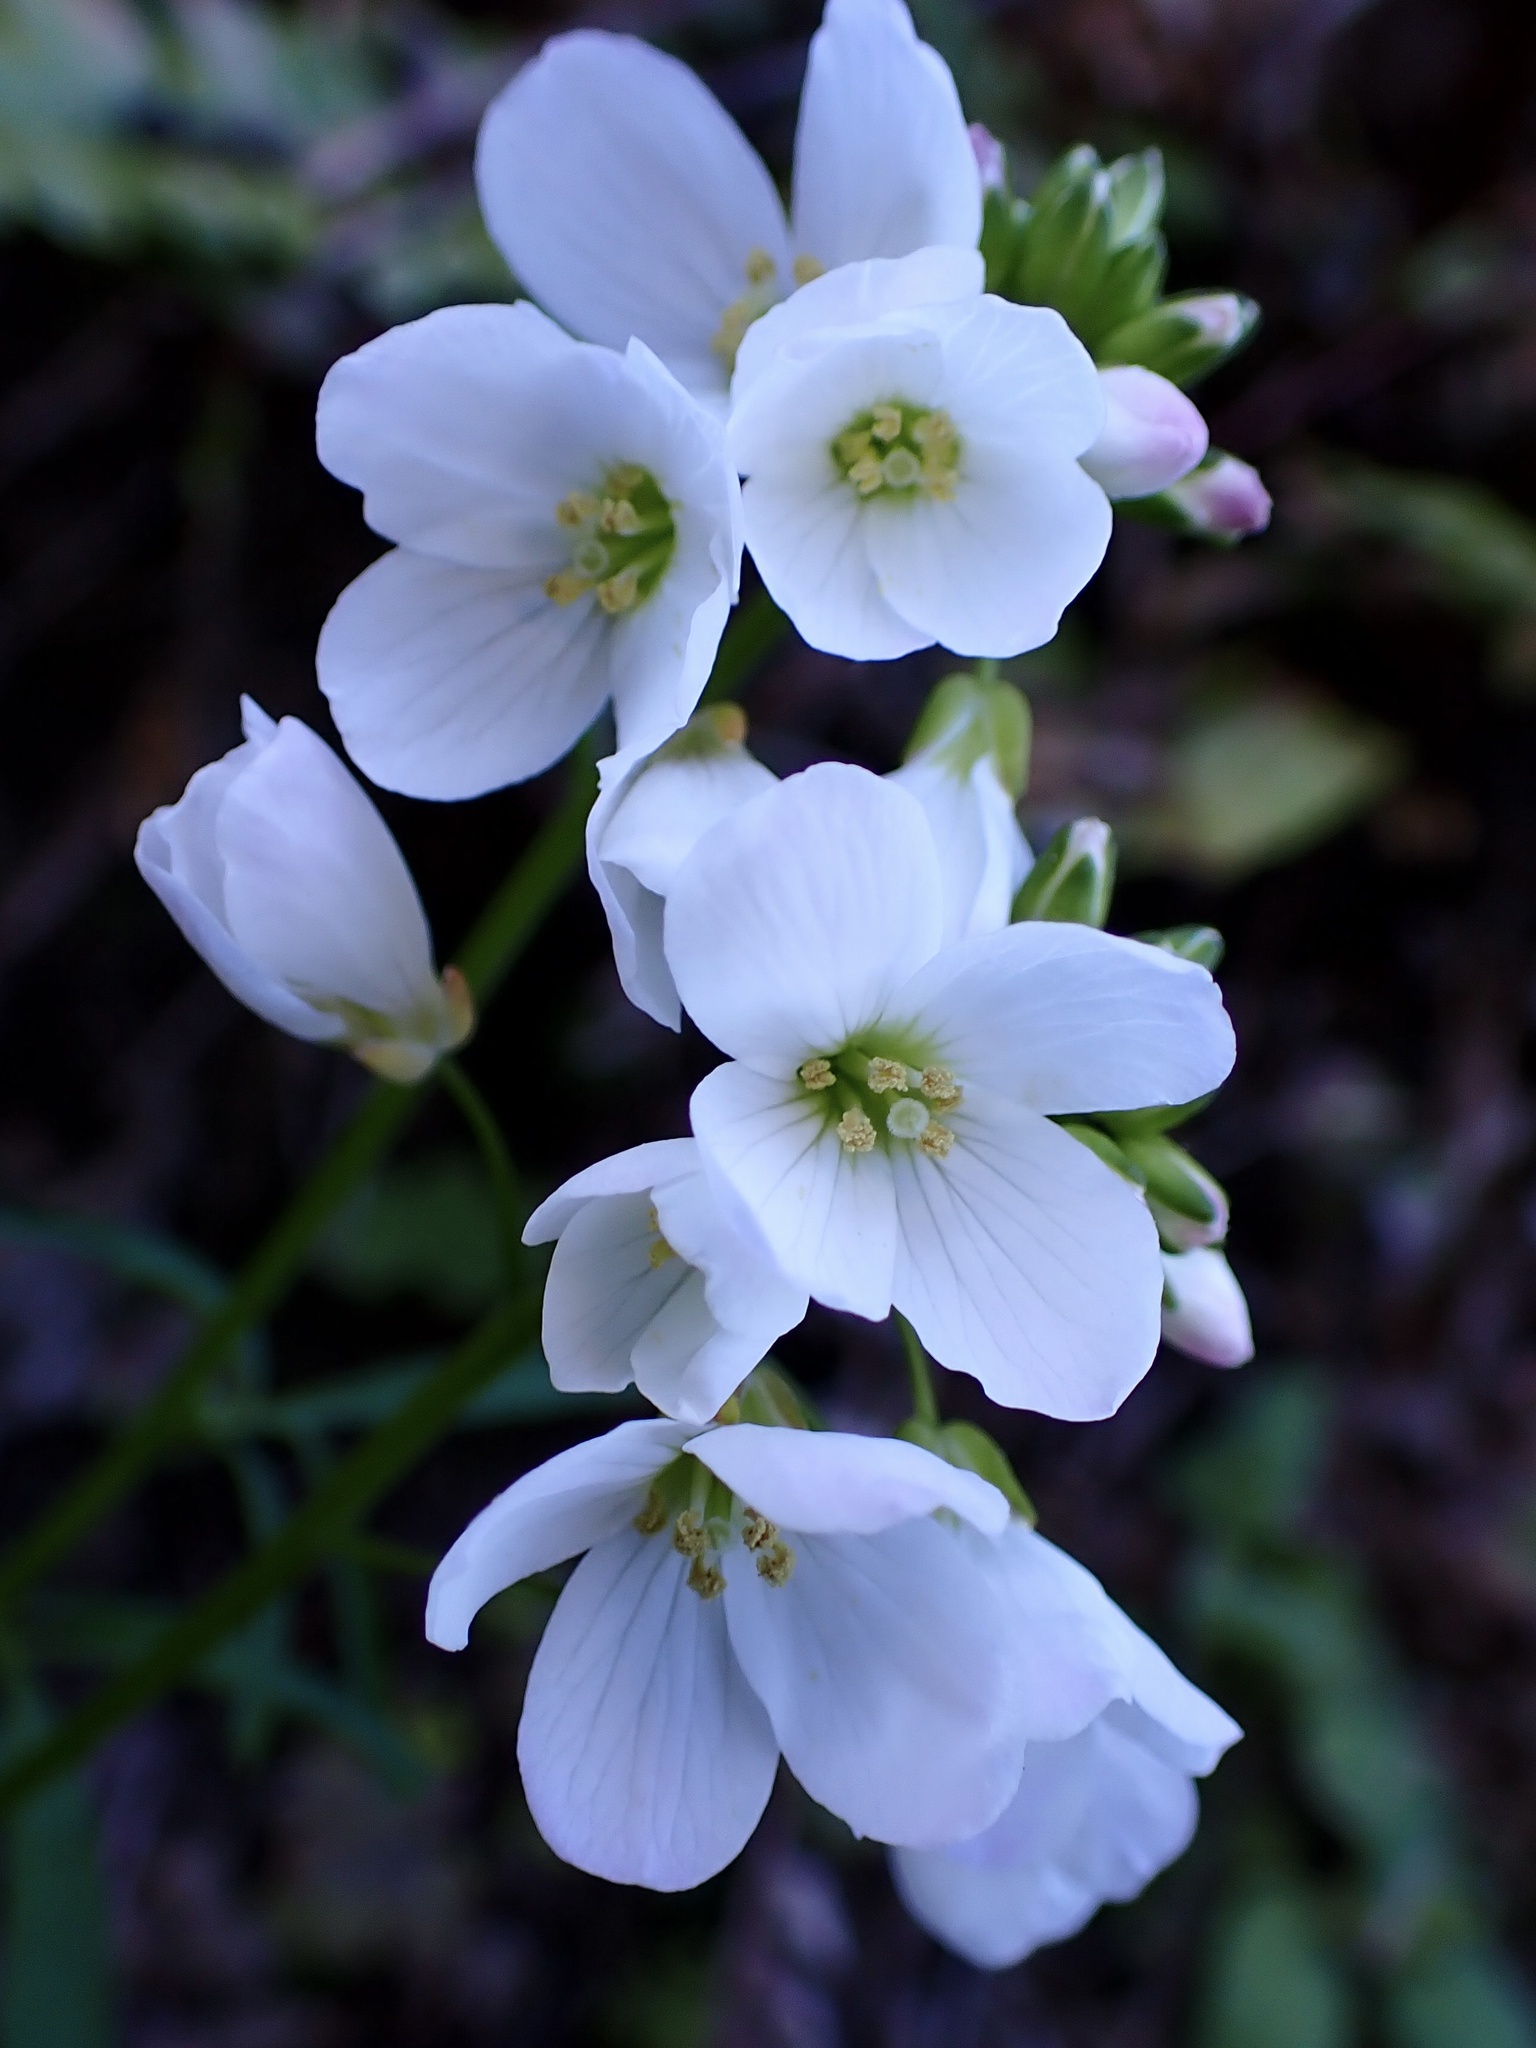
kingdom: Plantae
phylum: Tracheophyta
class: Magnoliopsida
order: Brassicales
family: Brassicaceae
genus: Cardamine
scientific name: Cardamine californica
